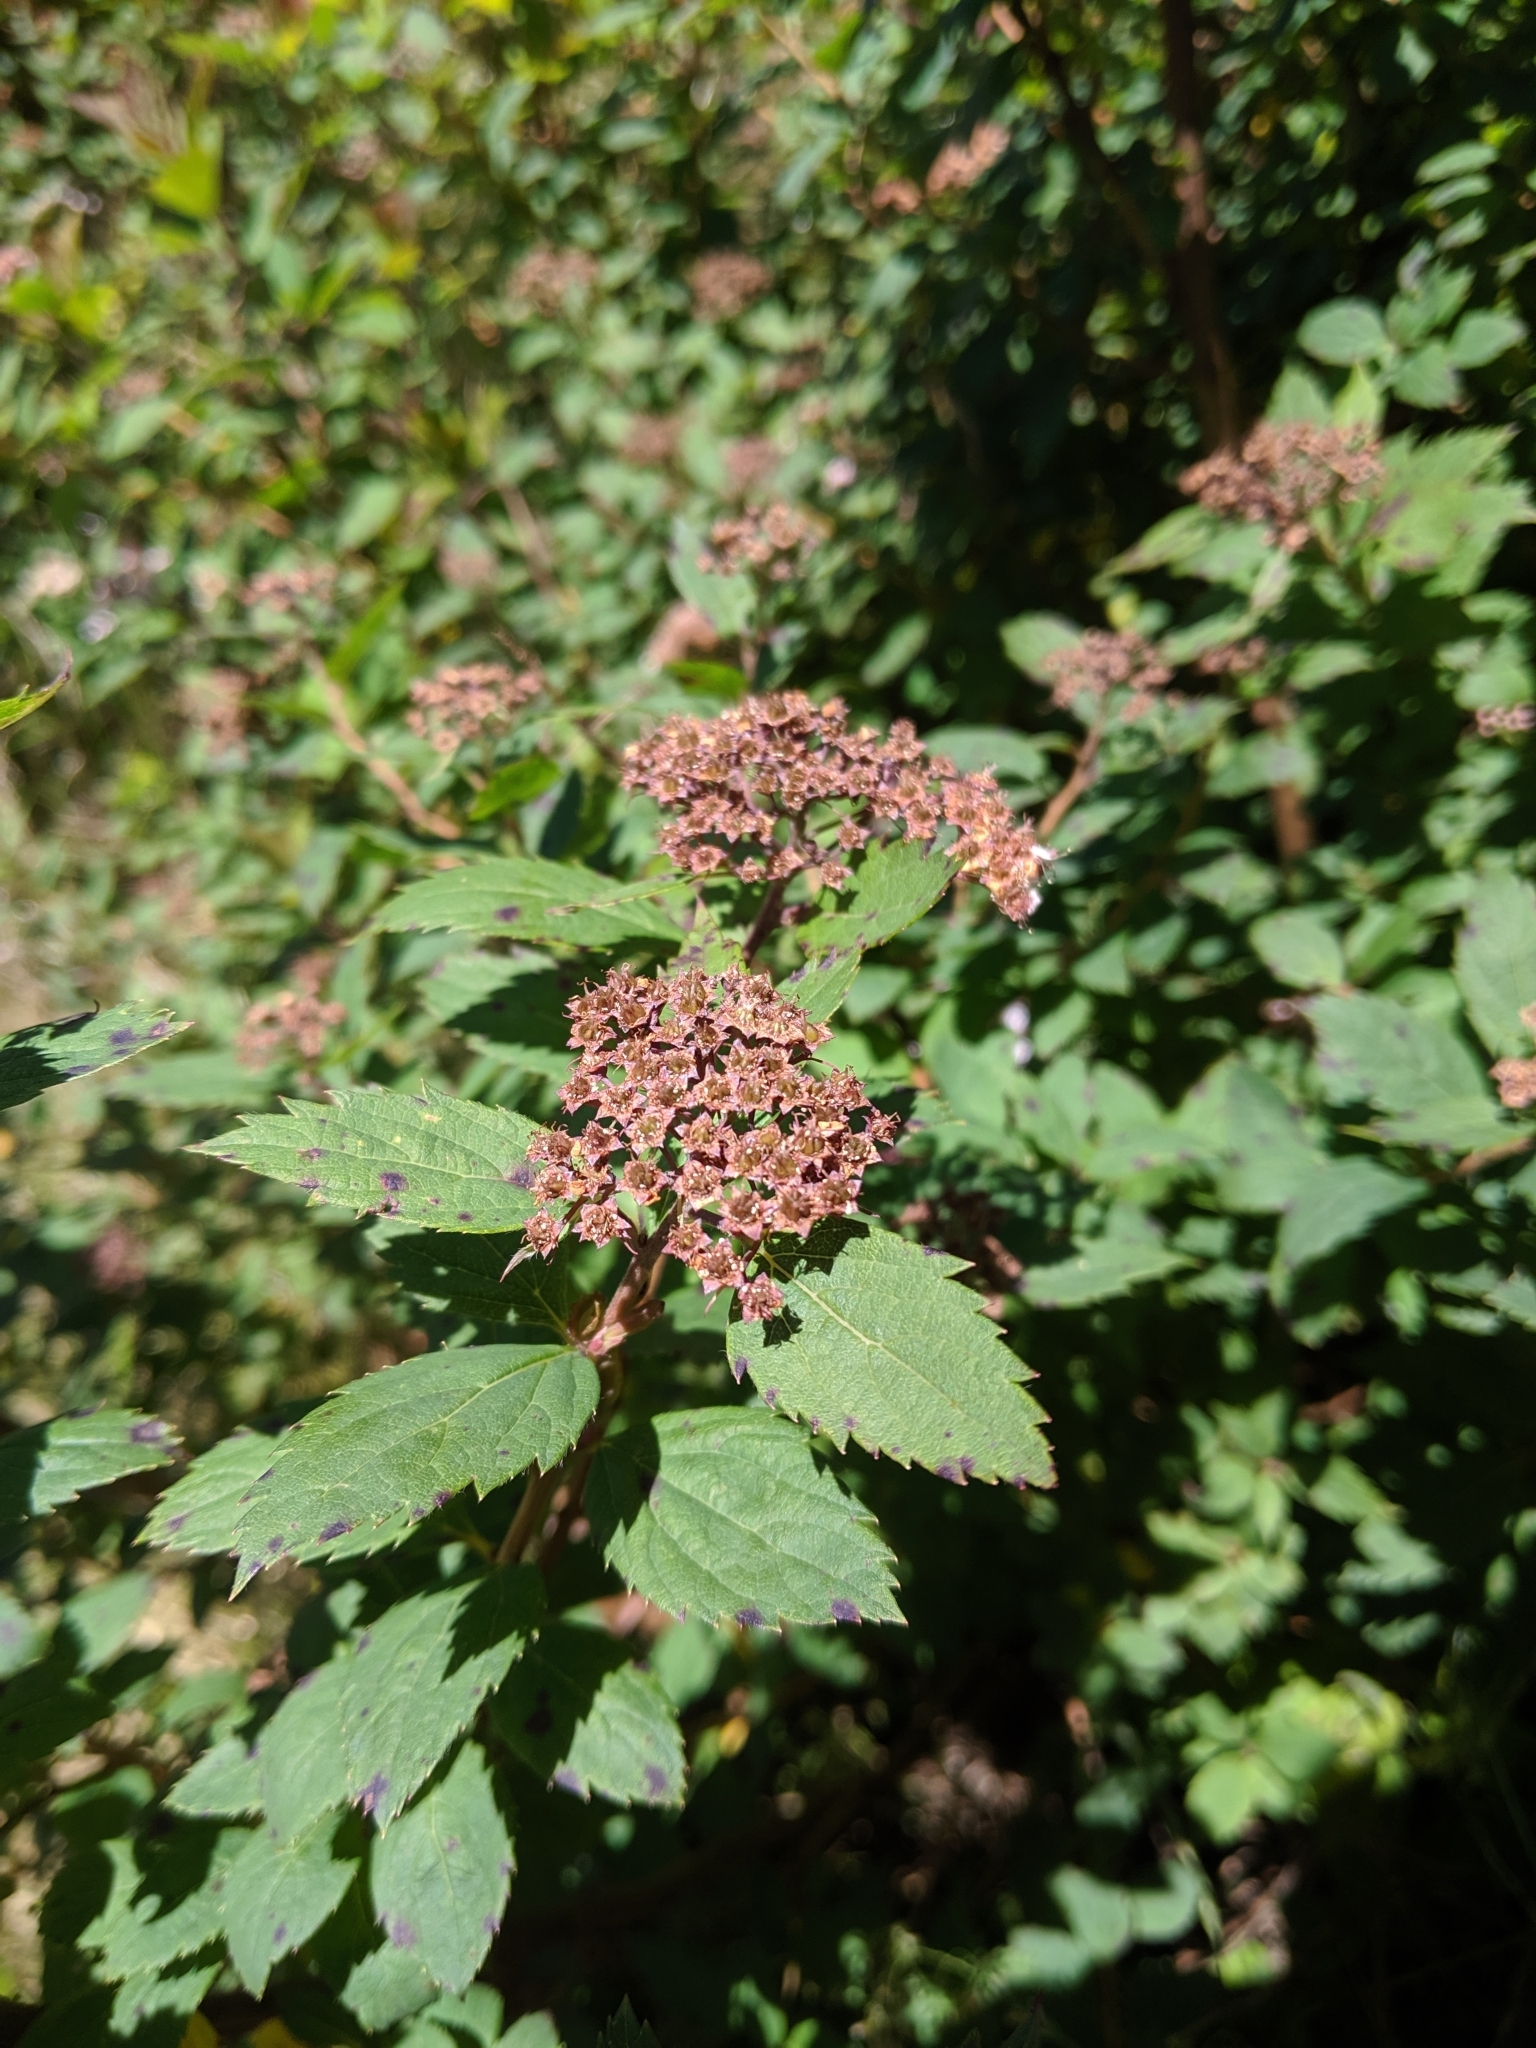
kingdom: Plantae
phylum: Tracheophyta
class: Magnoliopsida
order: Rosales
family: Rosaceae
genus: Spiraea
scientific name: Spiraea japonica
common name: Japanese spiraea
